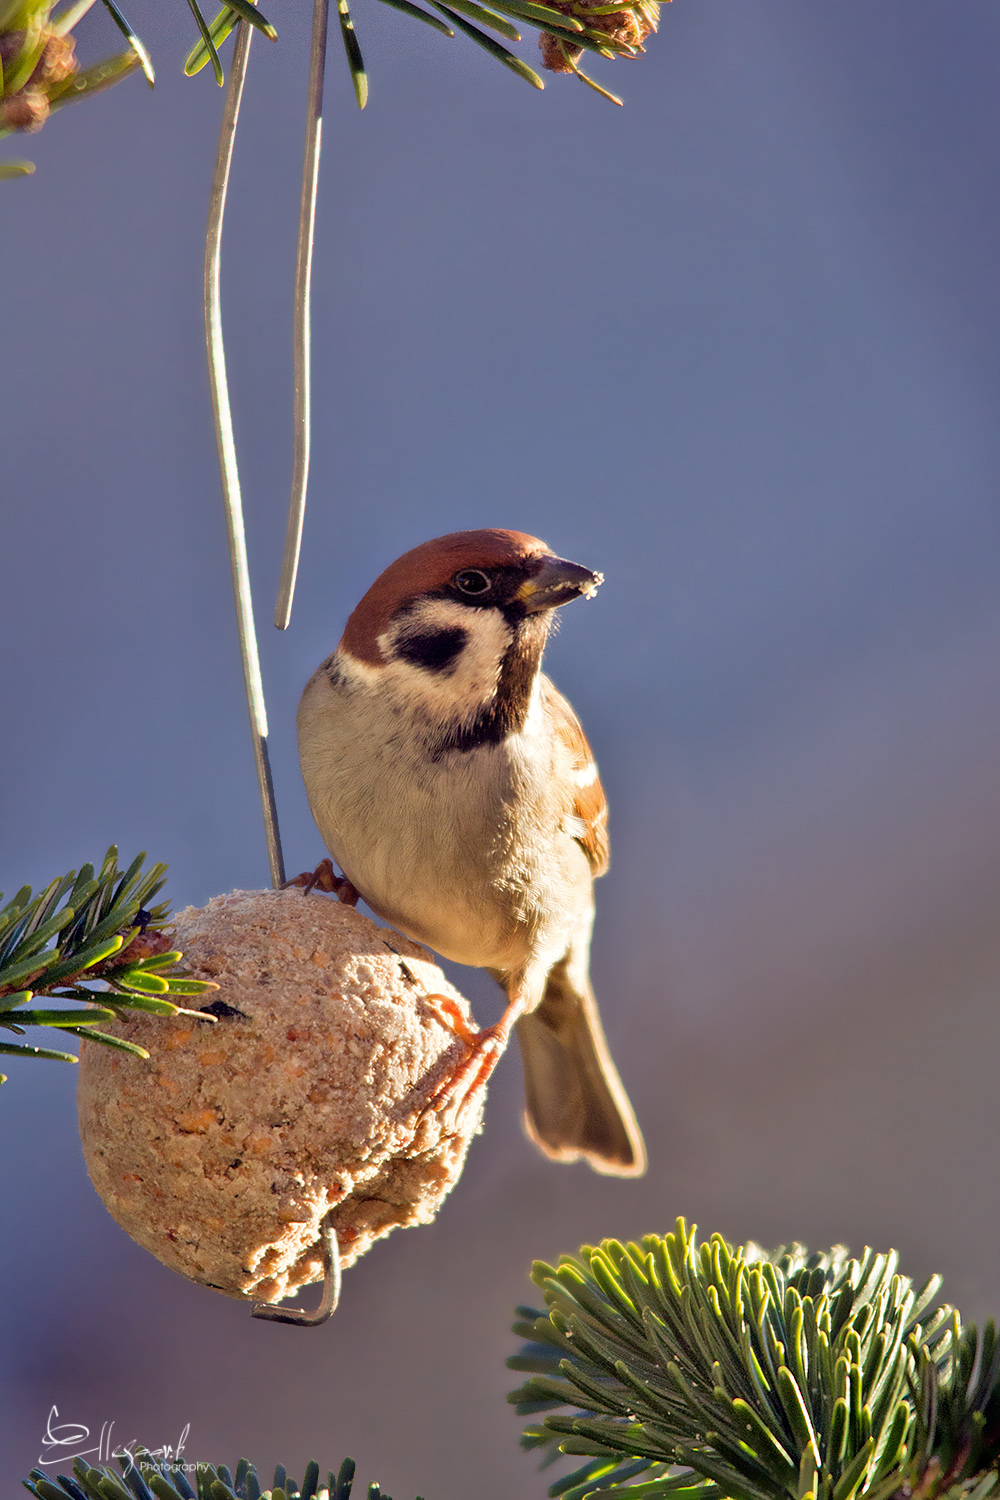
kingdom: Animalia
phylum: Chordata
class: Aves
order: Passeriformes
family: Passeridae
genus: Passer
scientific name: Passer montanus
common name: Eurasian tree sparrow
